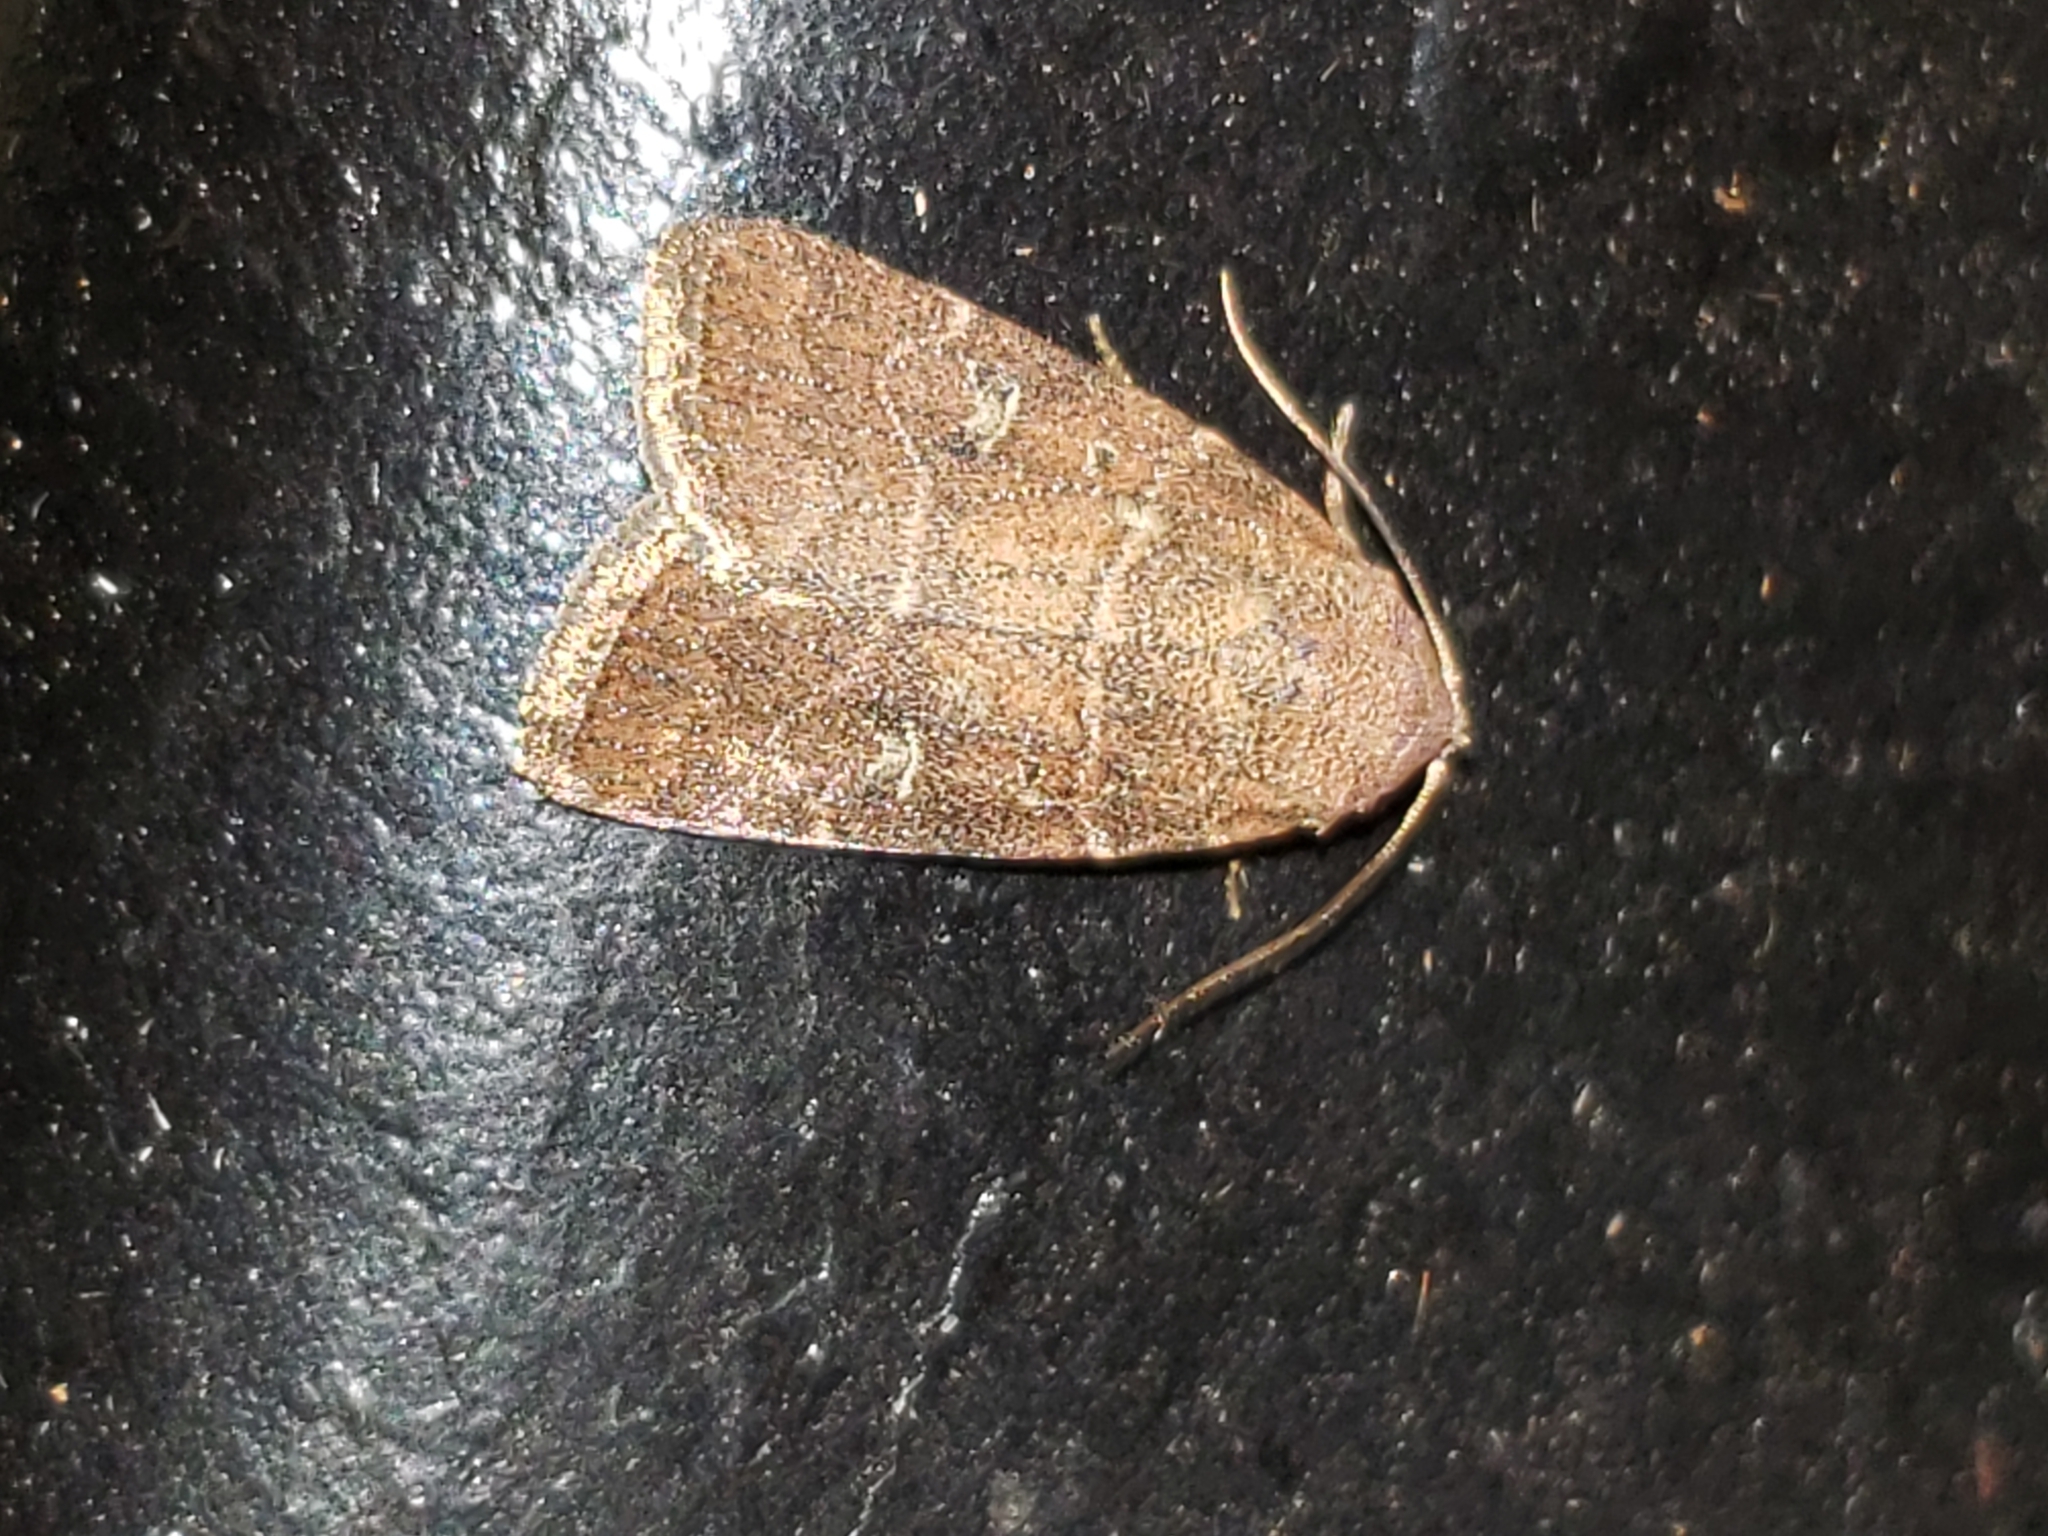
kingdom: Animalia
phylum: Arthropoda
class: Insecta
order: Lepidoptera
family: Noctuidae
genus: Elaphria
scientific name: Elaphria grata
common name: Grateful midget moth
